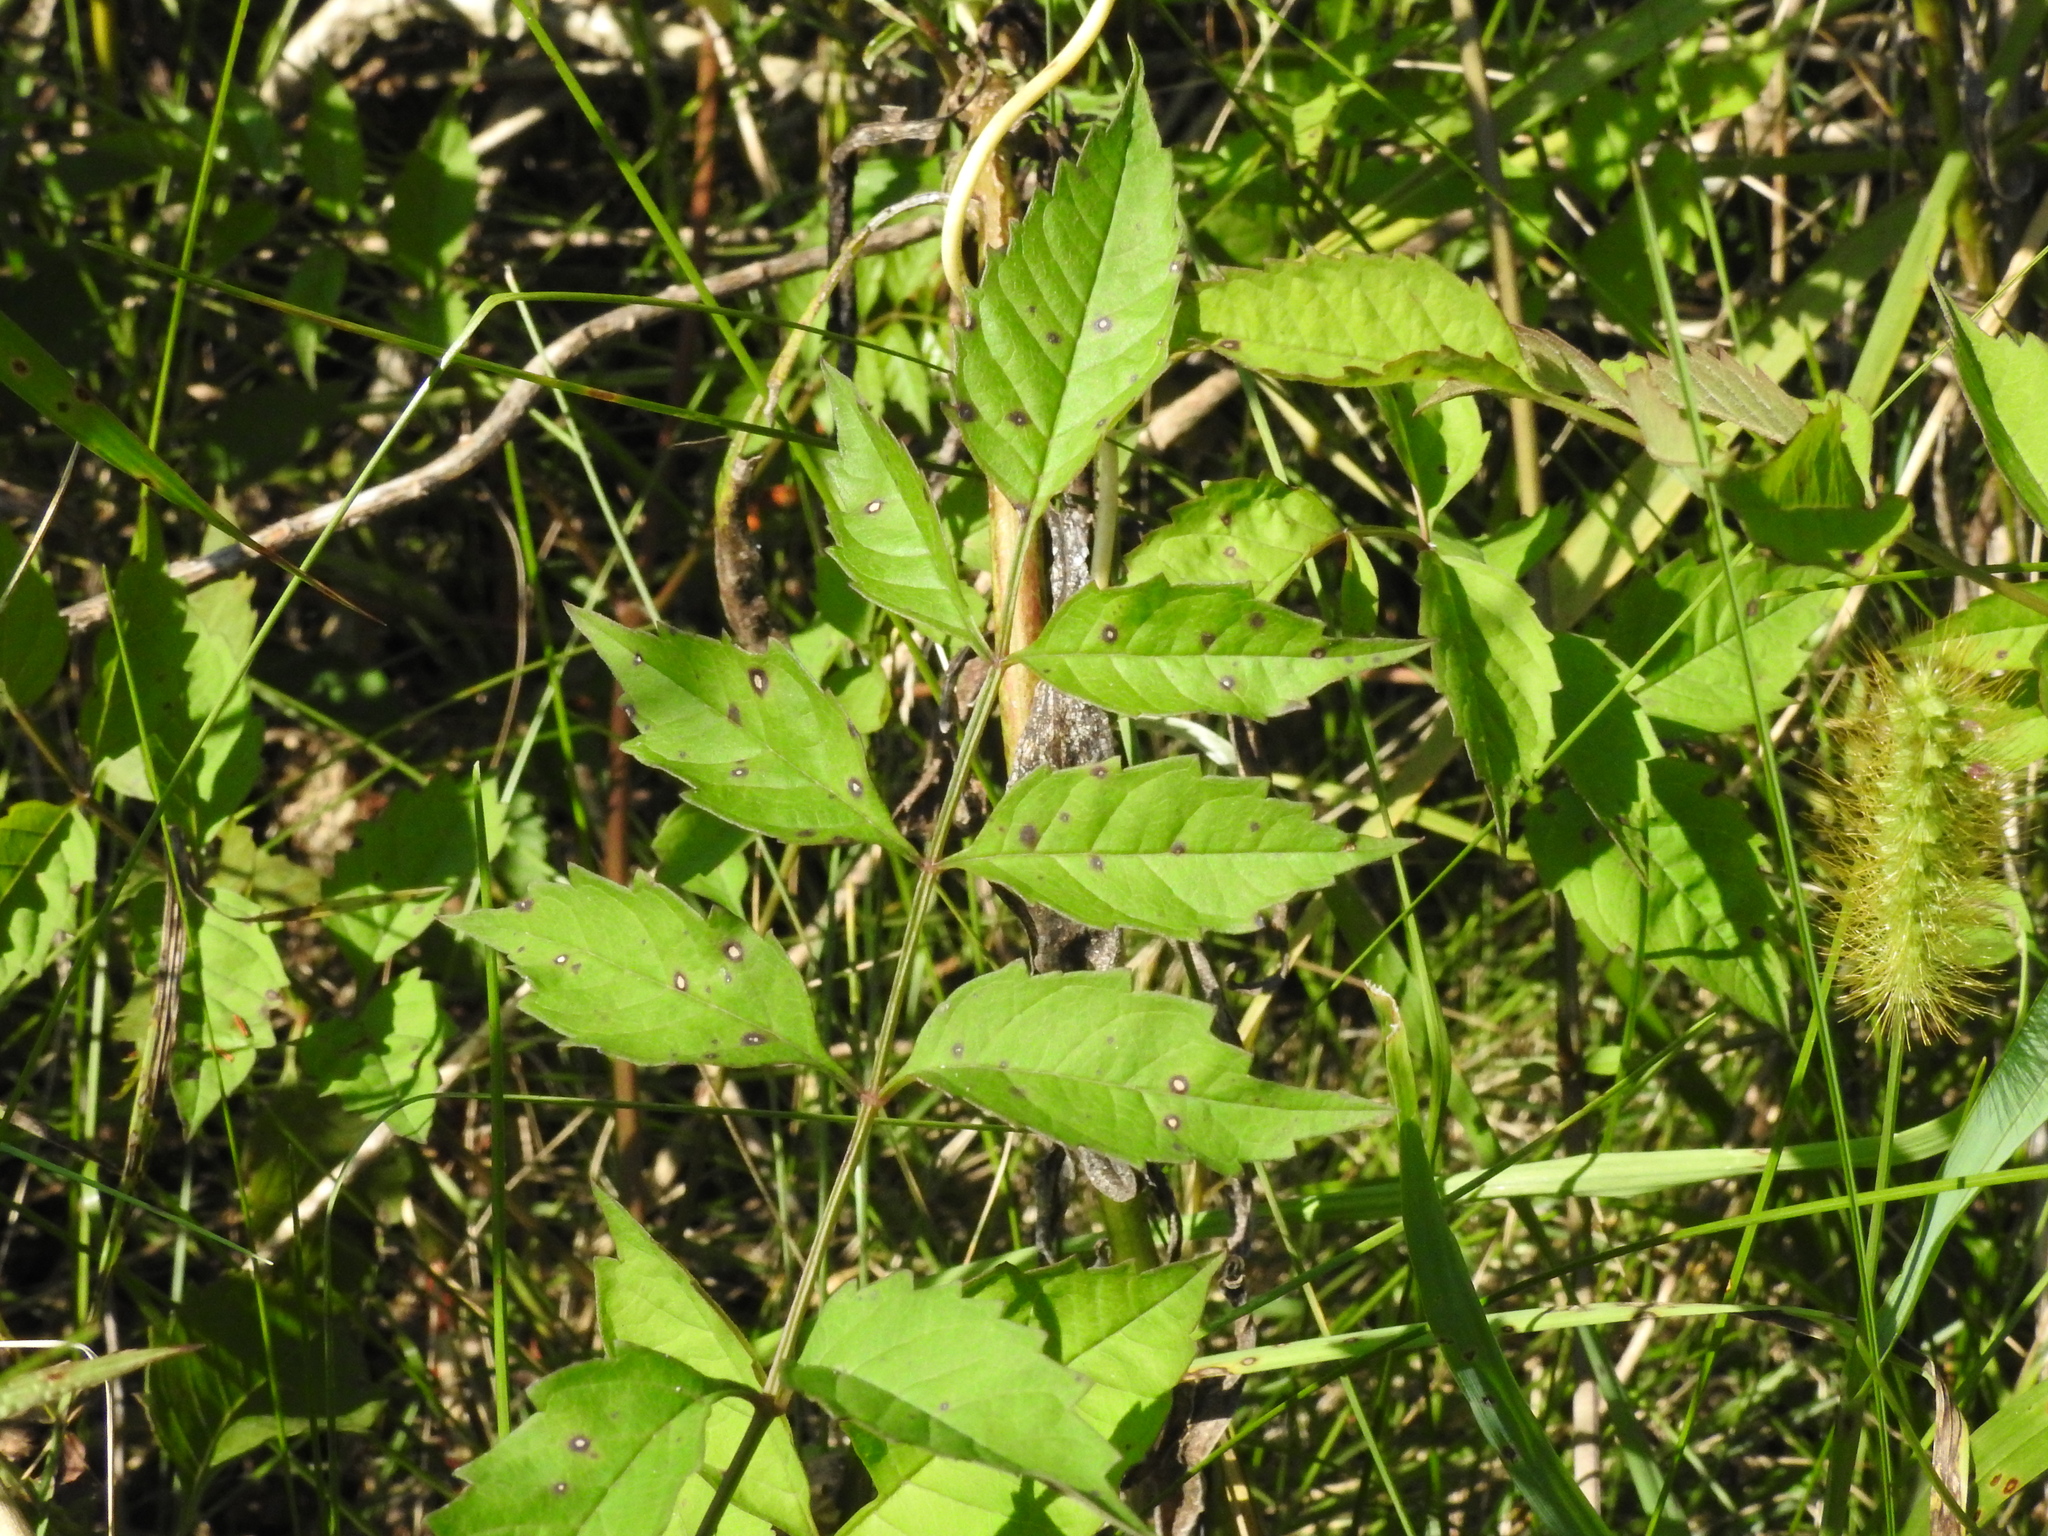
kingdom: Plantae
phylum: Tracheophyta
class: Magnoliopsida
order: Lamiales
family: Bignoniaceae
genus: Campsis
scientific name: Campsis radicans
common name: Trumpet-creeper
